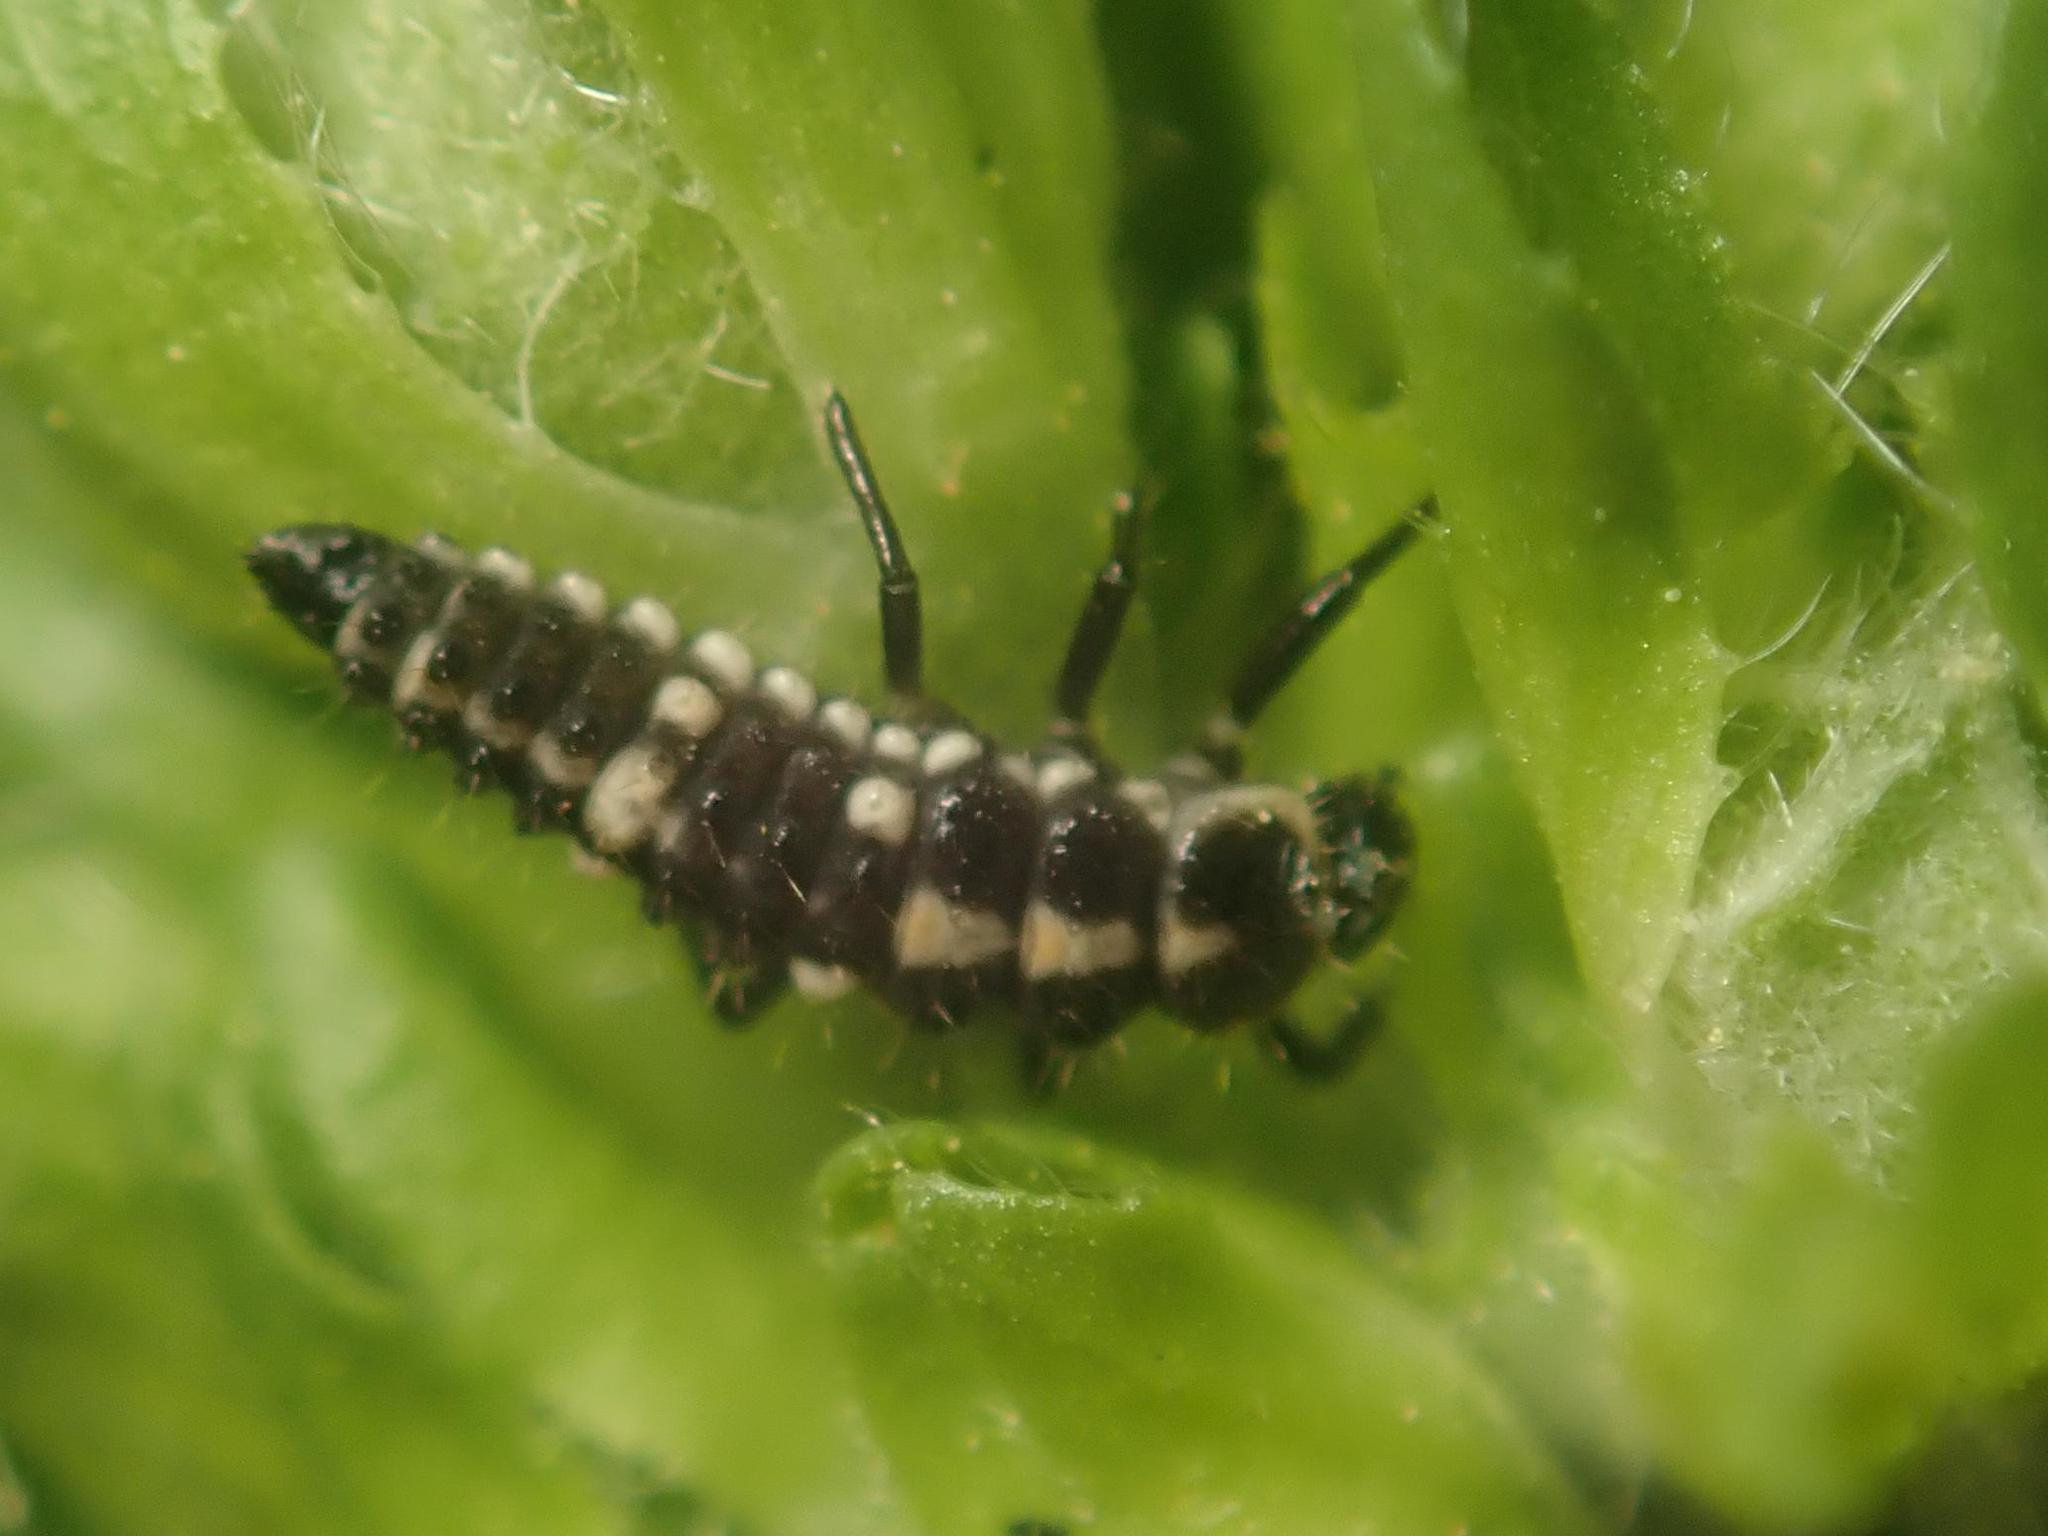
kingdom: Animalia
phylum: Arthropoda
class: Insecta
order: Coleoptera
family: Coccinellidae
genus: Propylaea
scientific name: Propylaea quatuordecimpunctata
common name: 14-spotted ladybird beetle
